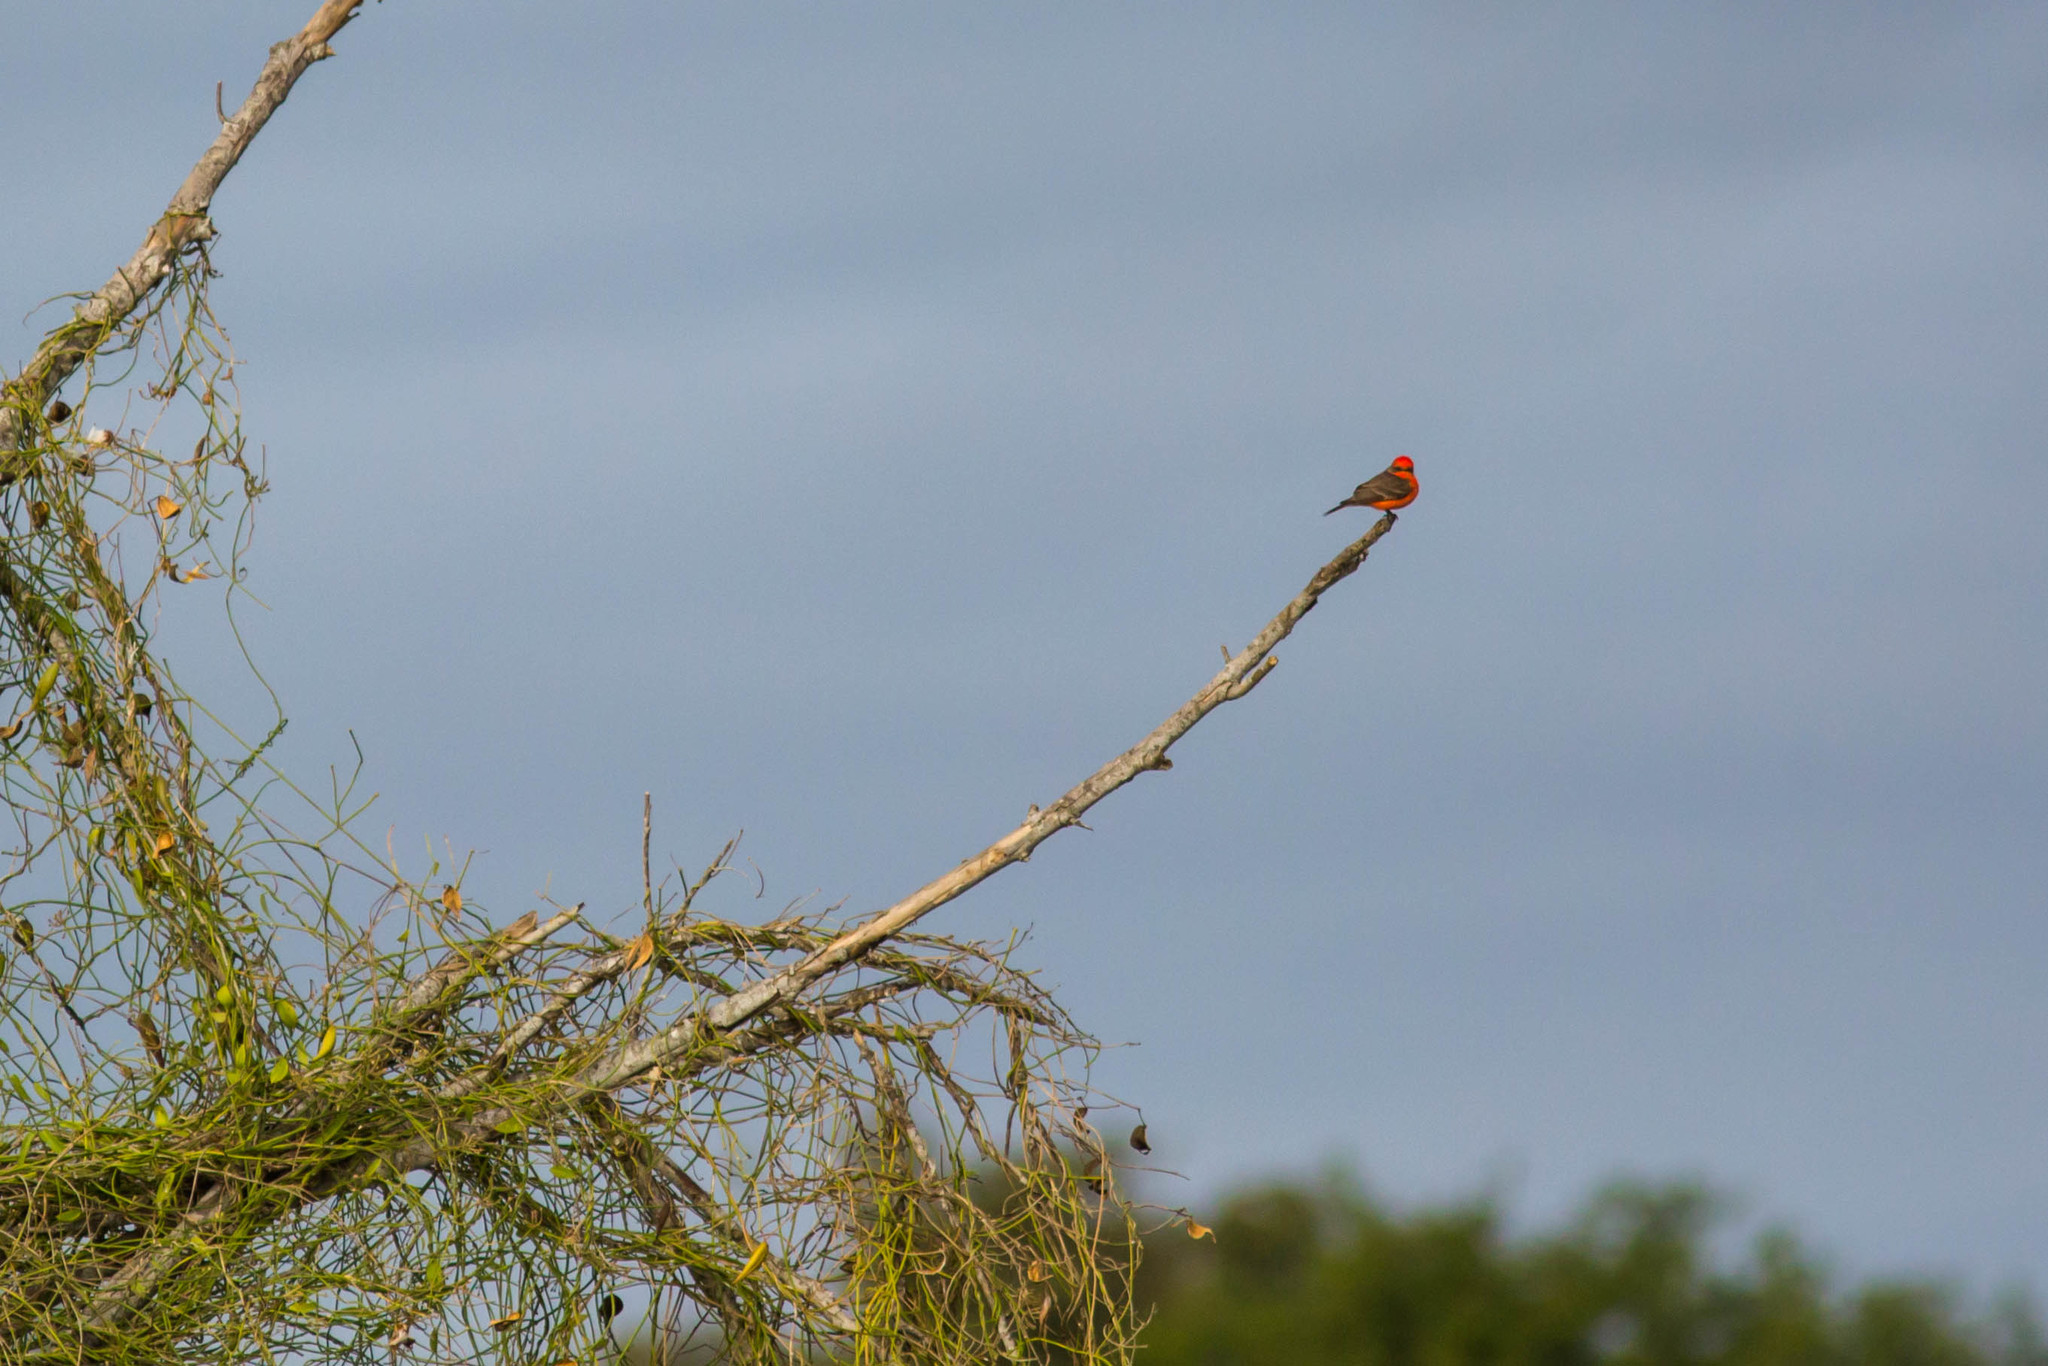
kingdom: Animalia
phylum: Chordata
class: Aves
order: Passeriformes
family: Tyrannidae
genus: Pyrocephalus
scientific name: Pyrocephalus rubinus
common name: Vermilion flycatcher
